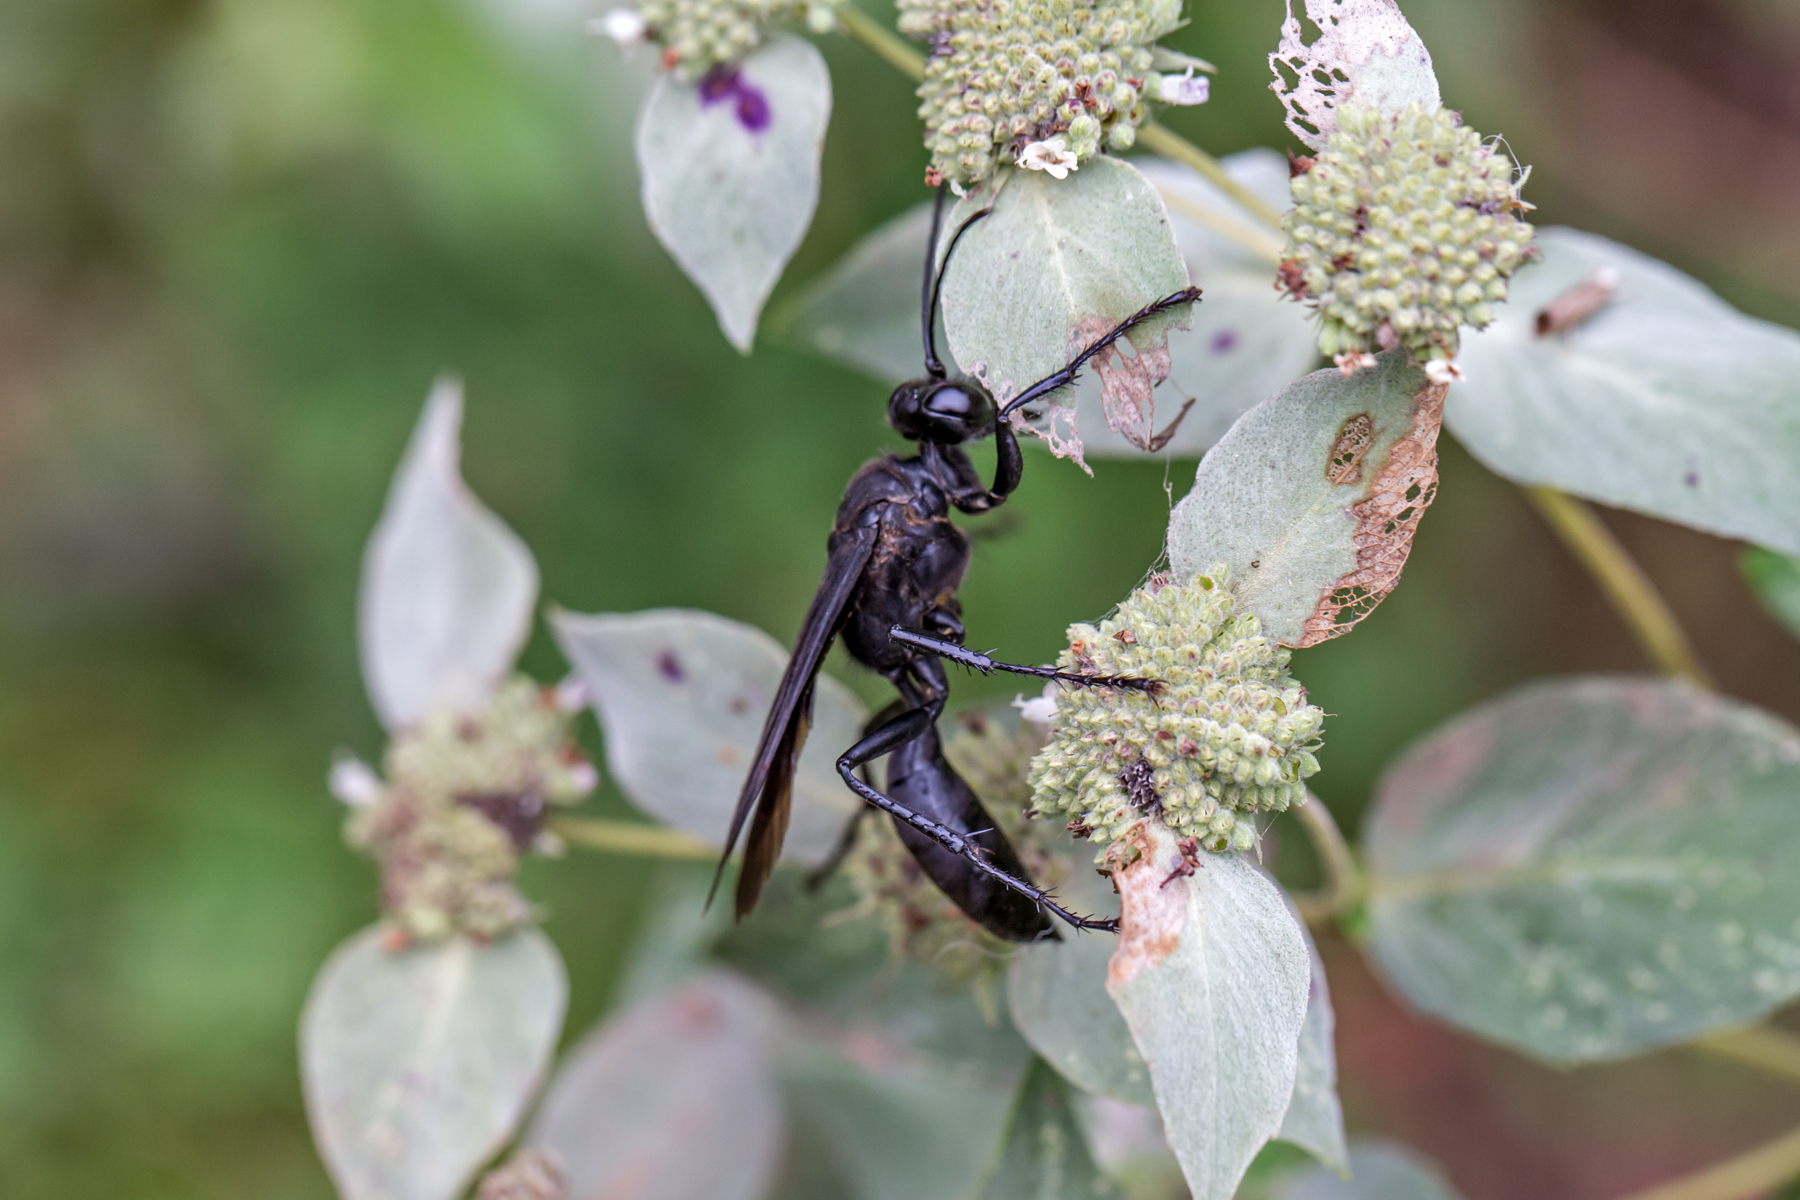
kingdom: Animalia
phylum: Arthropoda
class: Insecta
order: Hymenoptera
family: Sphecidae
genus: Sphex
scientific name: Sphex pensylvanicus
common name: Great black digger wasp
